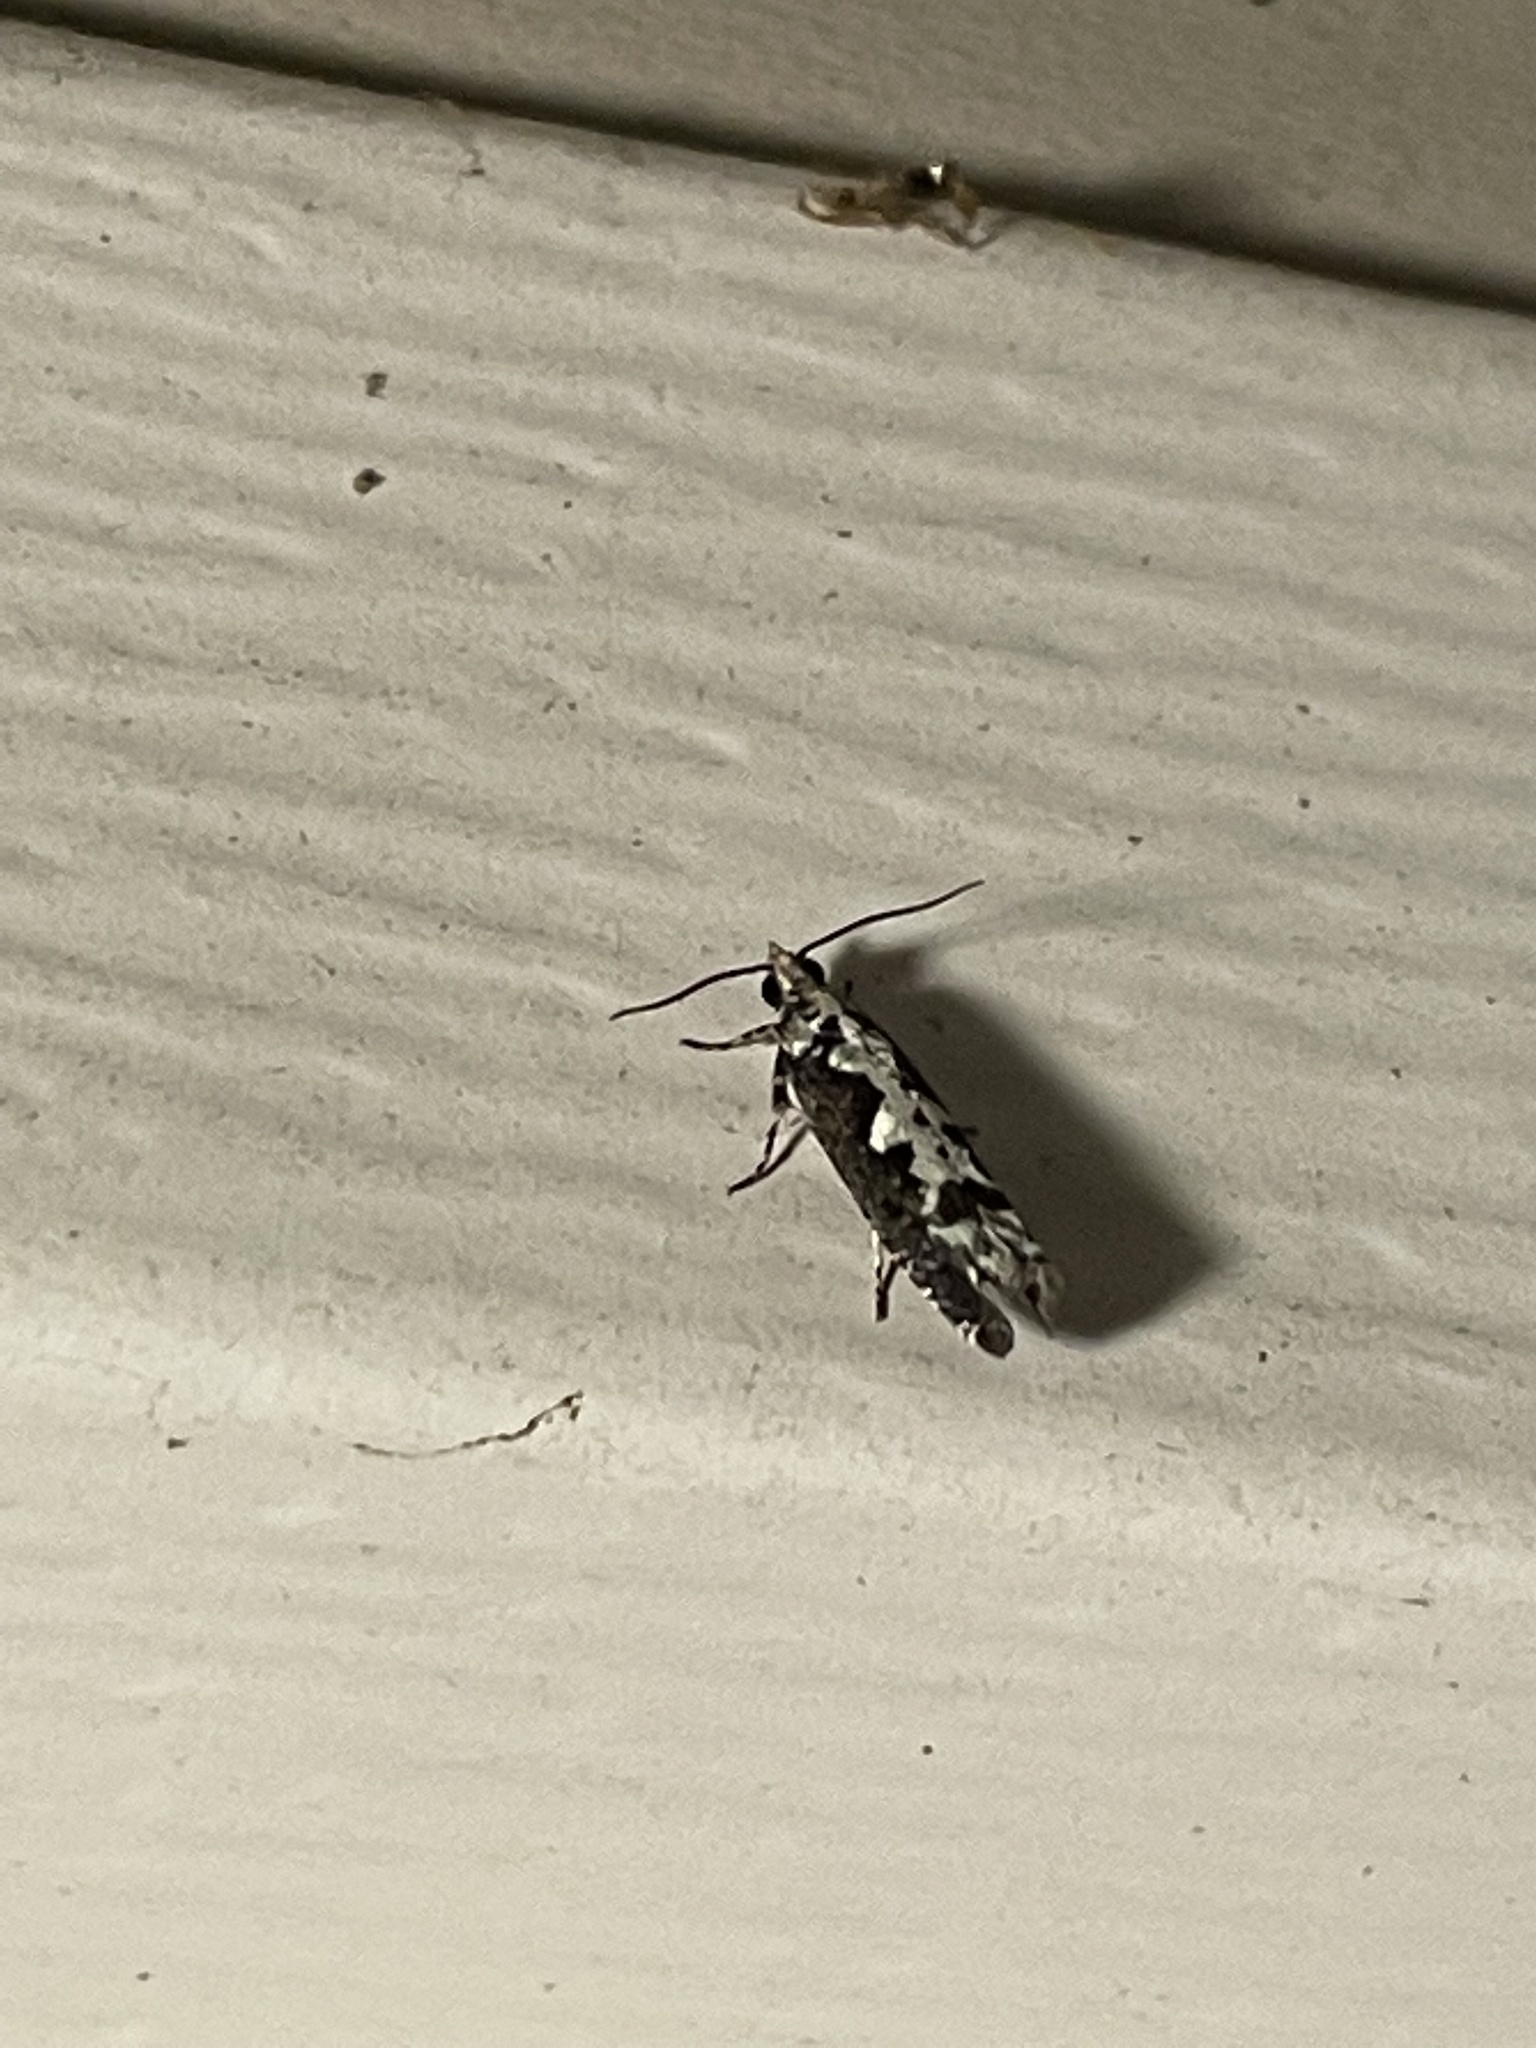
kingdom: Animalia
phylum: Arthropoda
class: Insecta
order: Lepidoptera
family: Tortricidae
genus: Chimoptesis
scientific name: Chimoptesis pennsylvaniana
